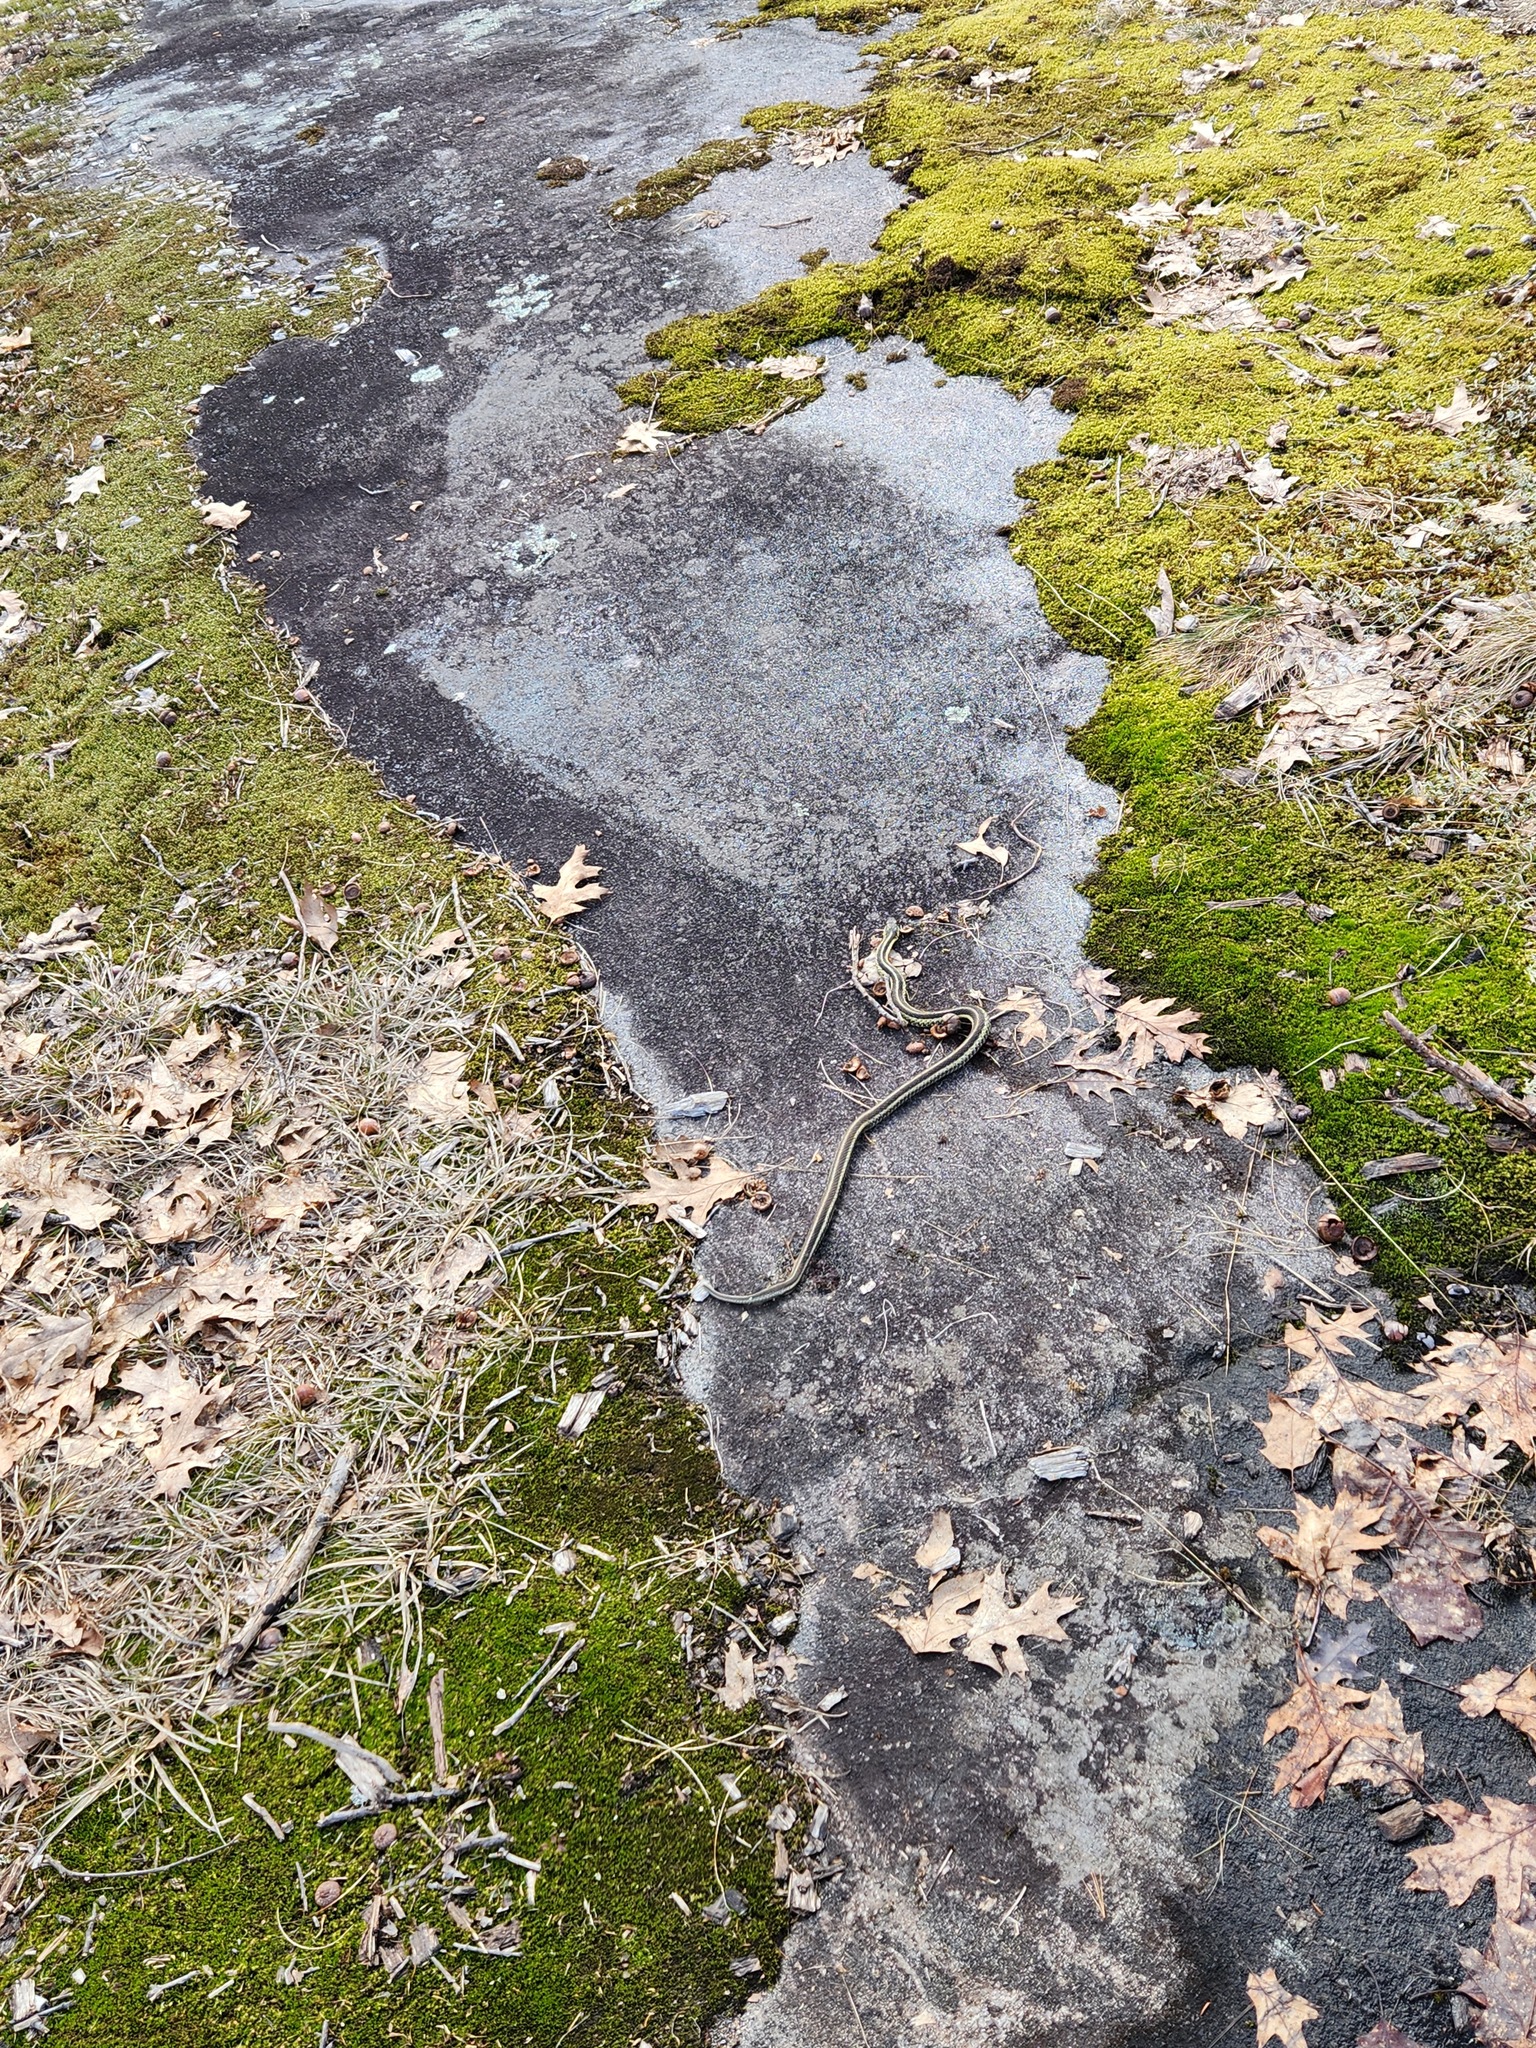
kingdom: Animalia
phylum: Chordata
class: Squamata
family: Colubridae
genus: Thamnophis
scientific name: Thamnophis sirtalis
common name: Common garter snake
